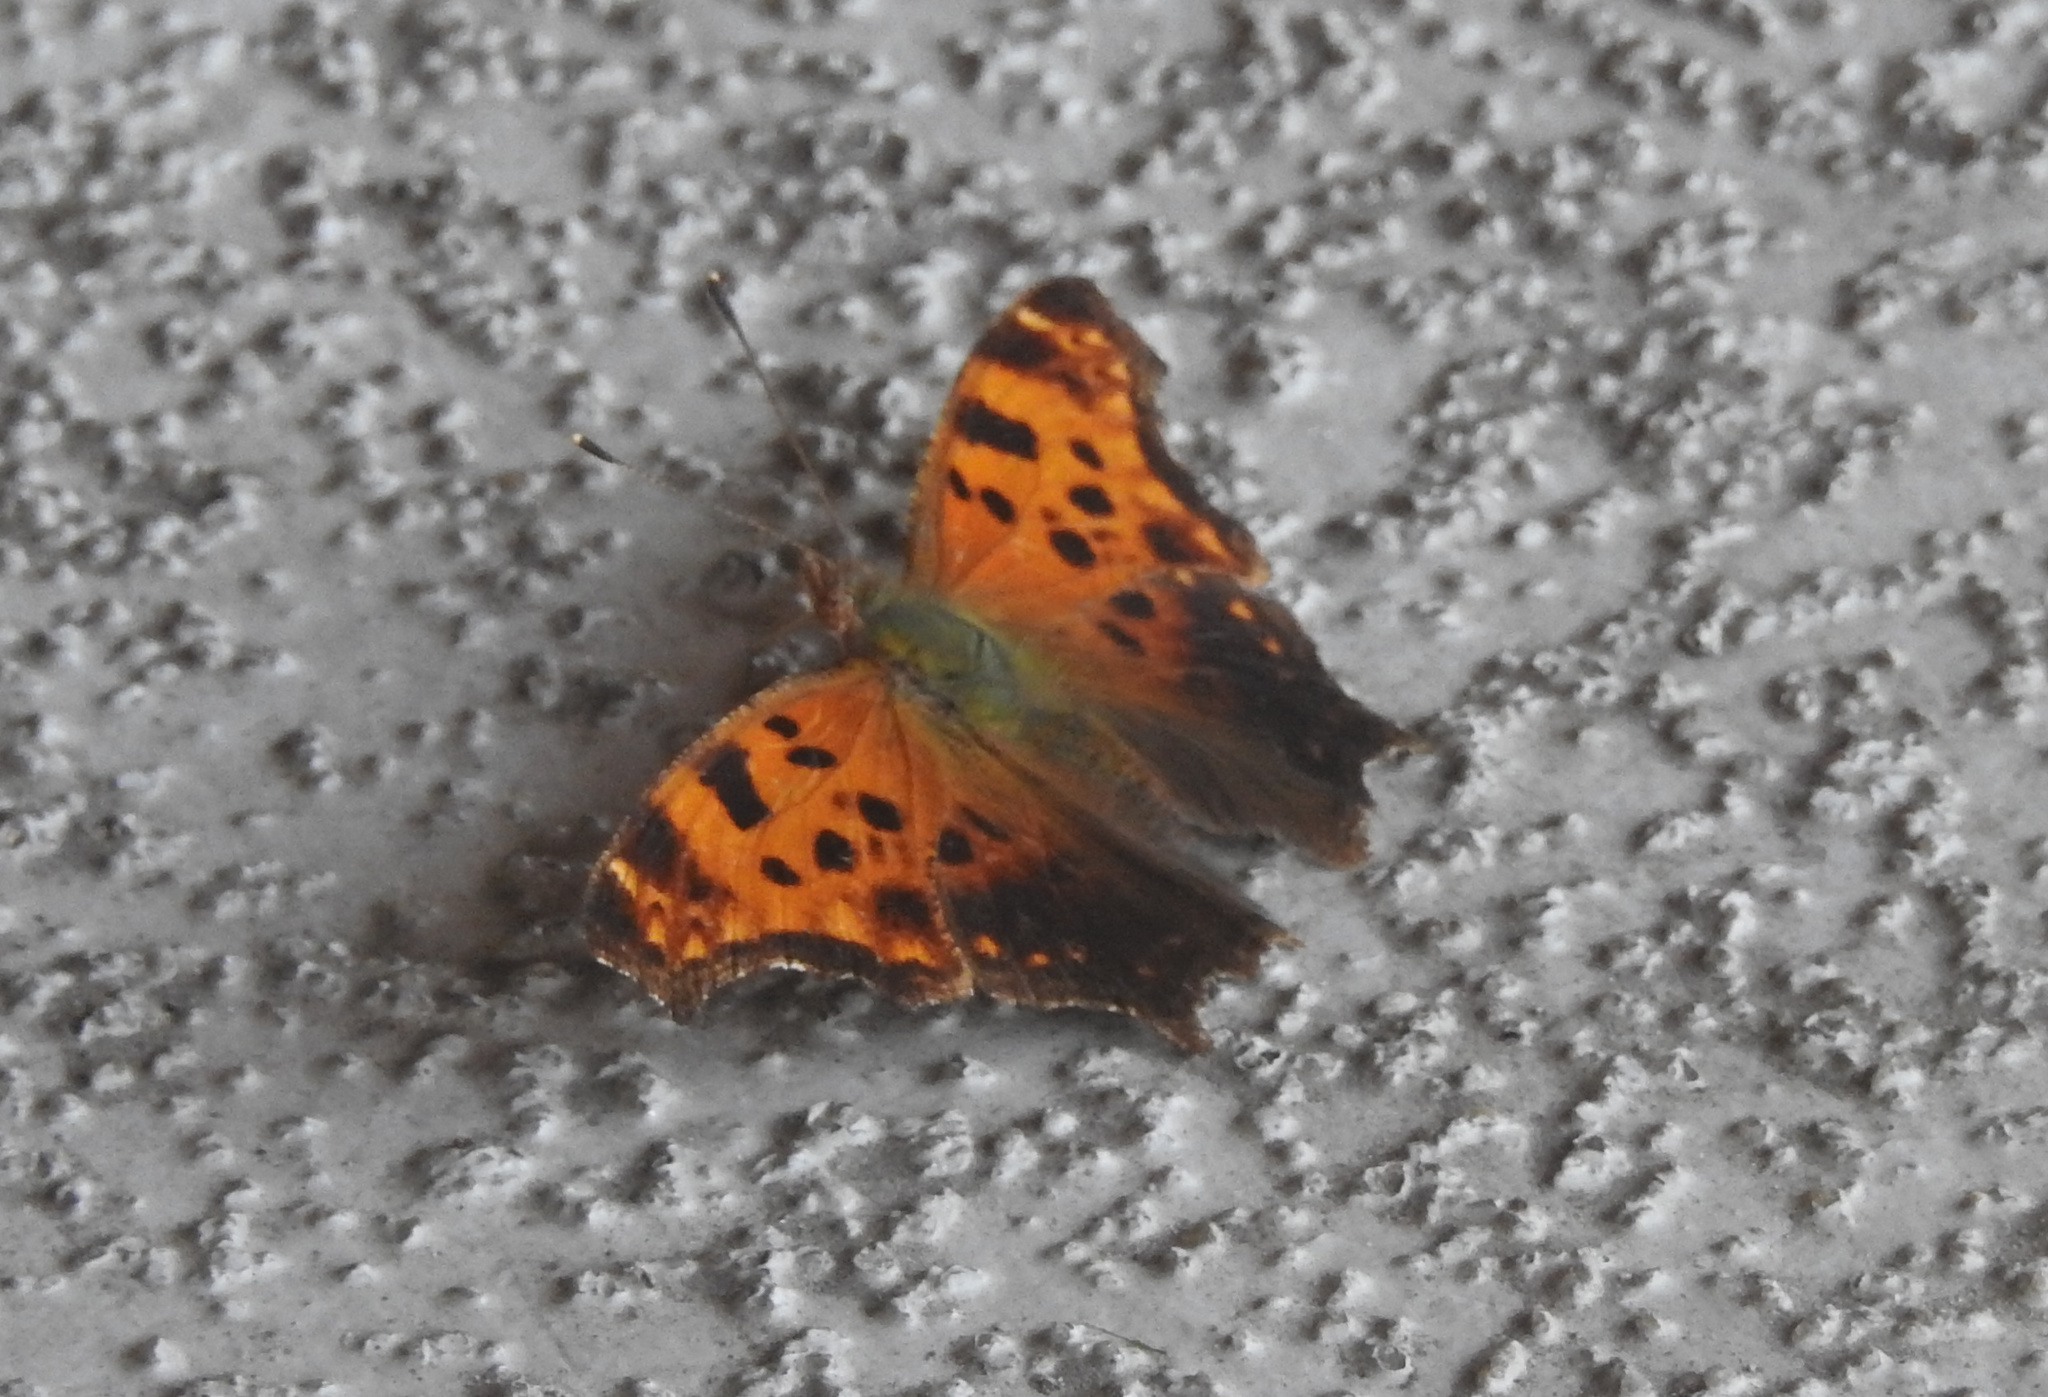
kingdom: Animalia
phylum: Arthropoda
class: Insecta
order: Lepidoptera
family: Nymphalidae
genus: Polygonia
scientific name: Polygonia comma
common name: Eastern comma
